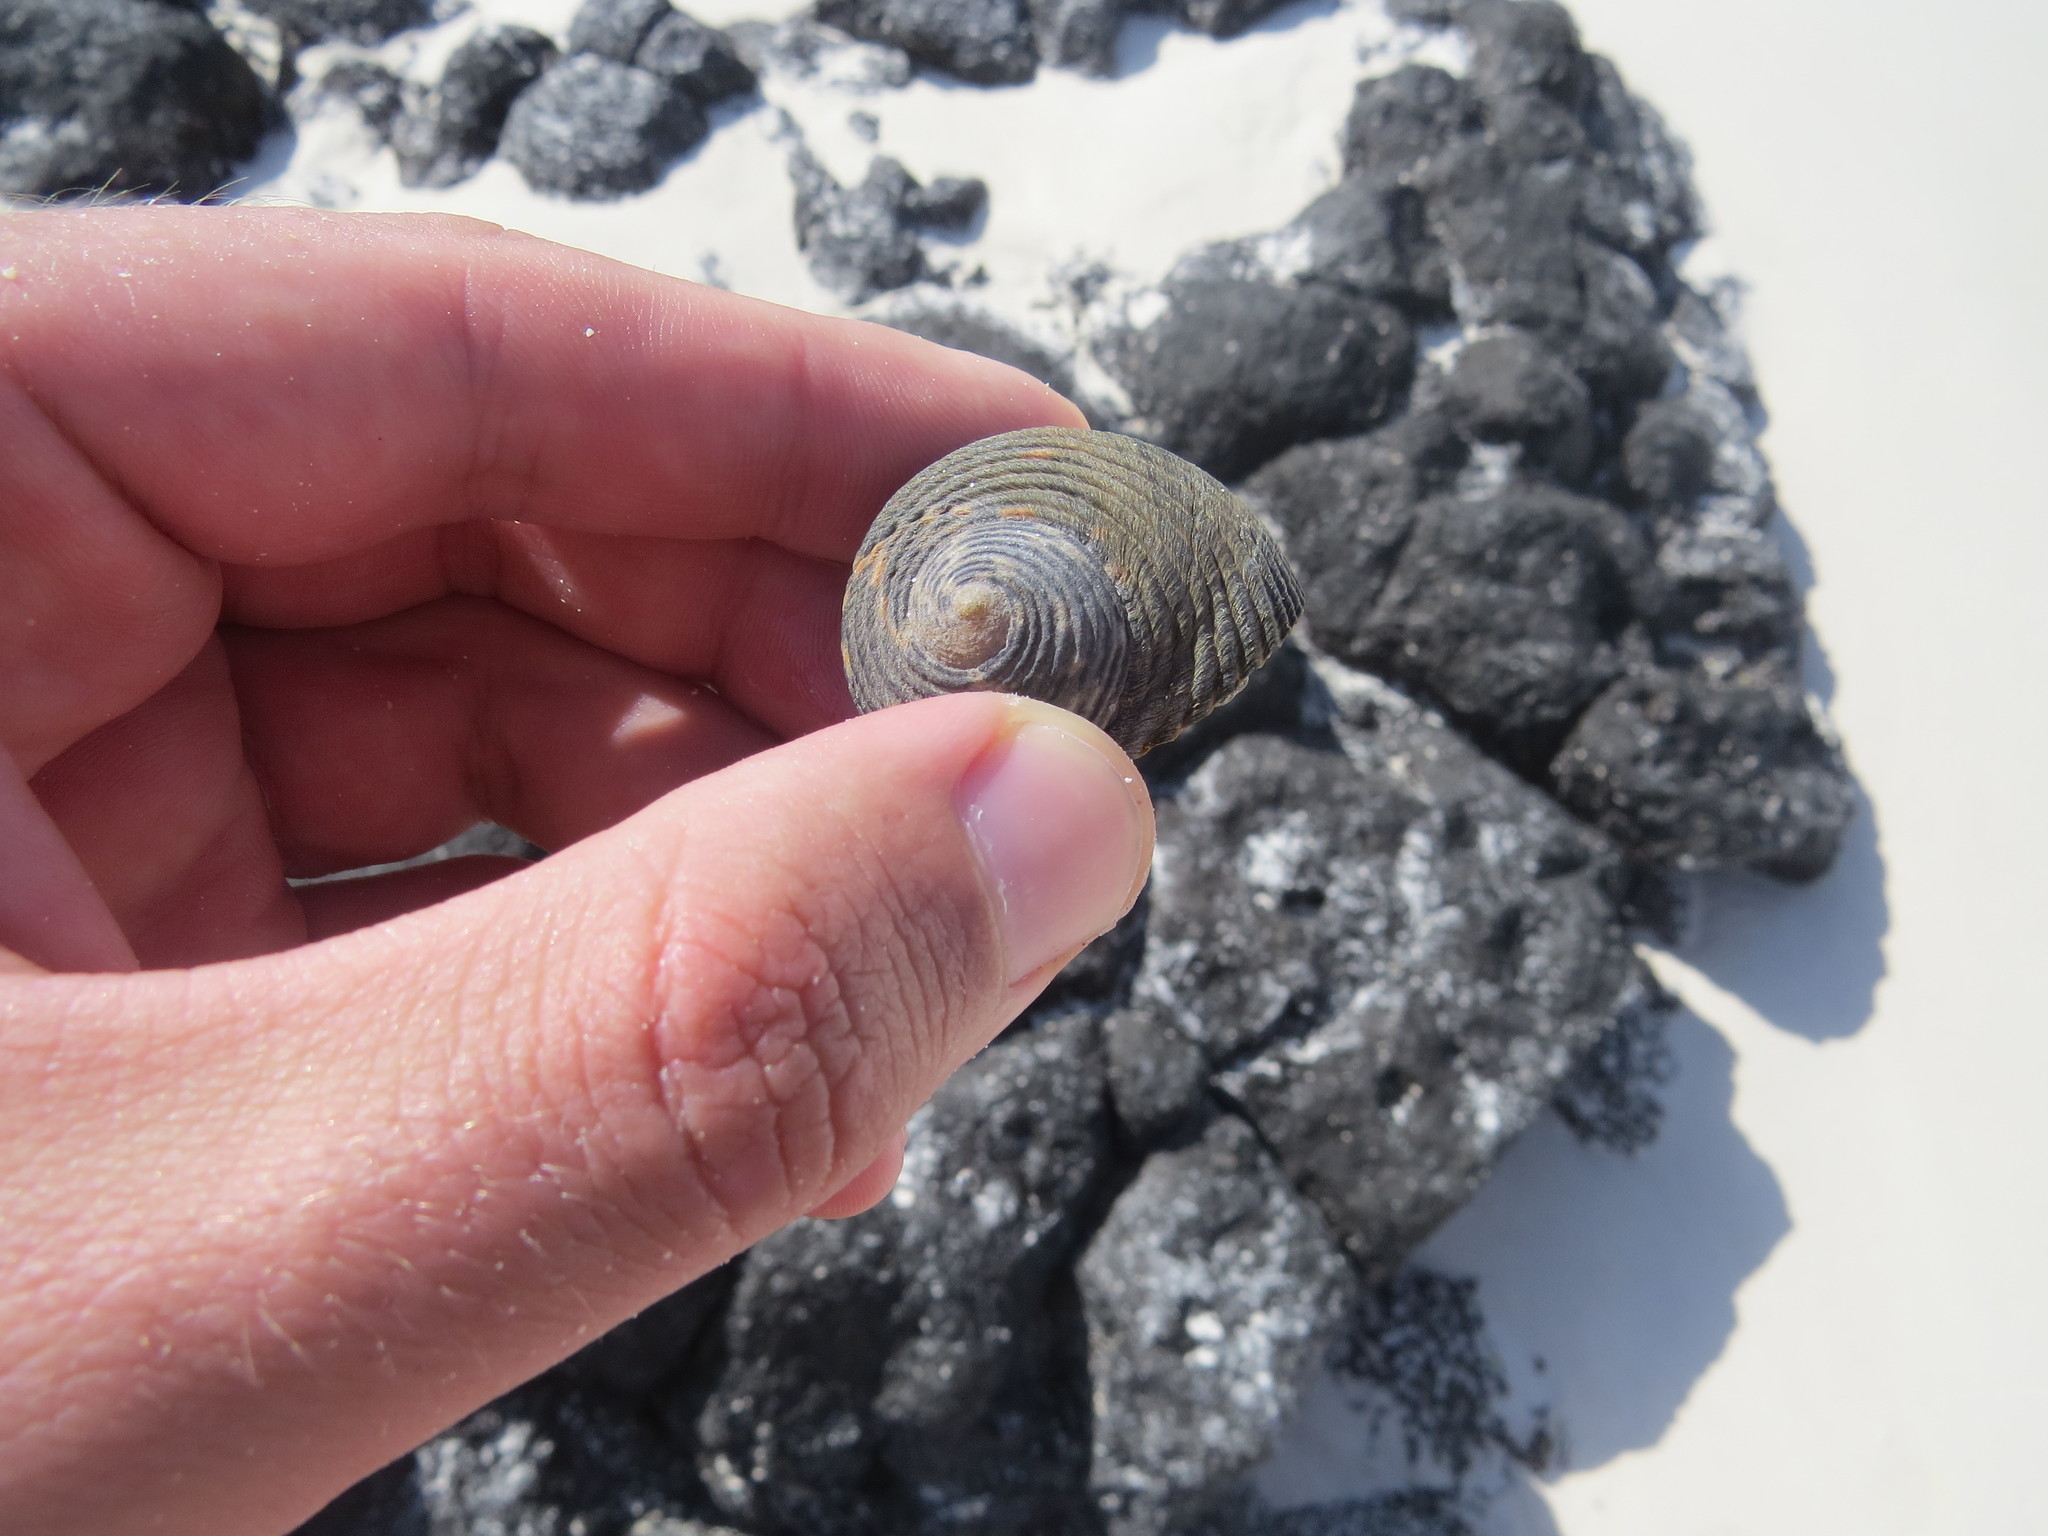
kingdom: Animalia
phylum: Mollusca
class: Gastropoda
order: Cycloneritida
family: Neritidae
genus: Nerita
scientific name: Nerita scabricosta
